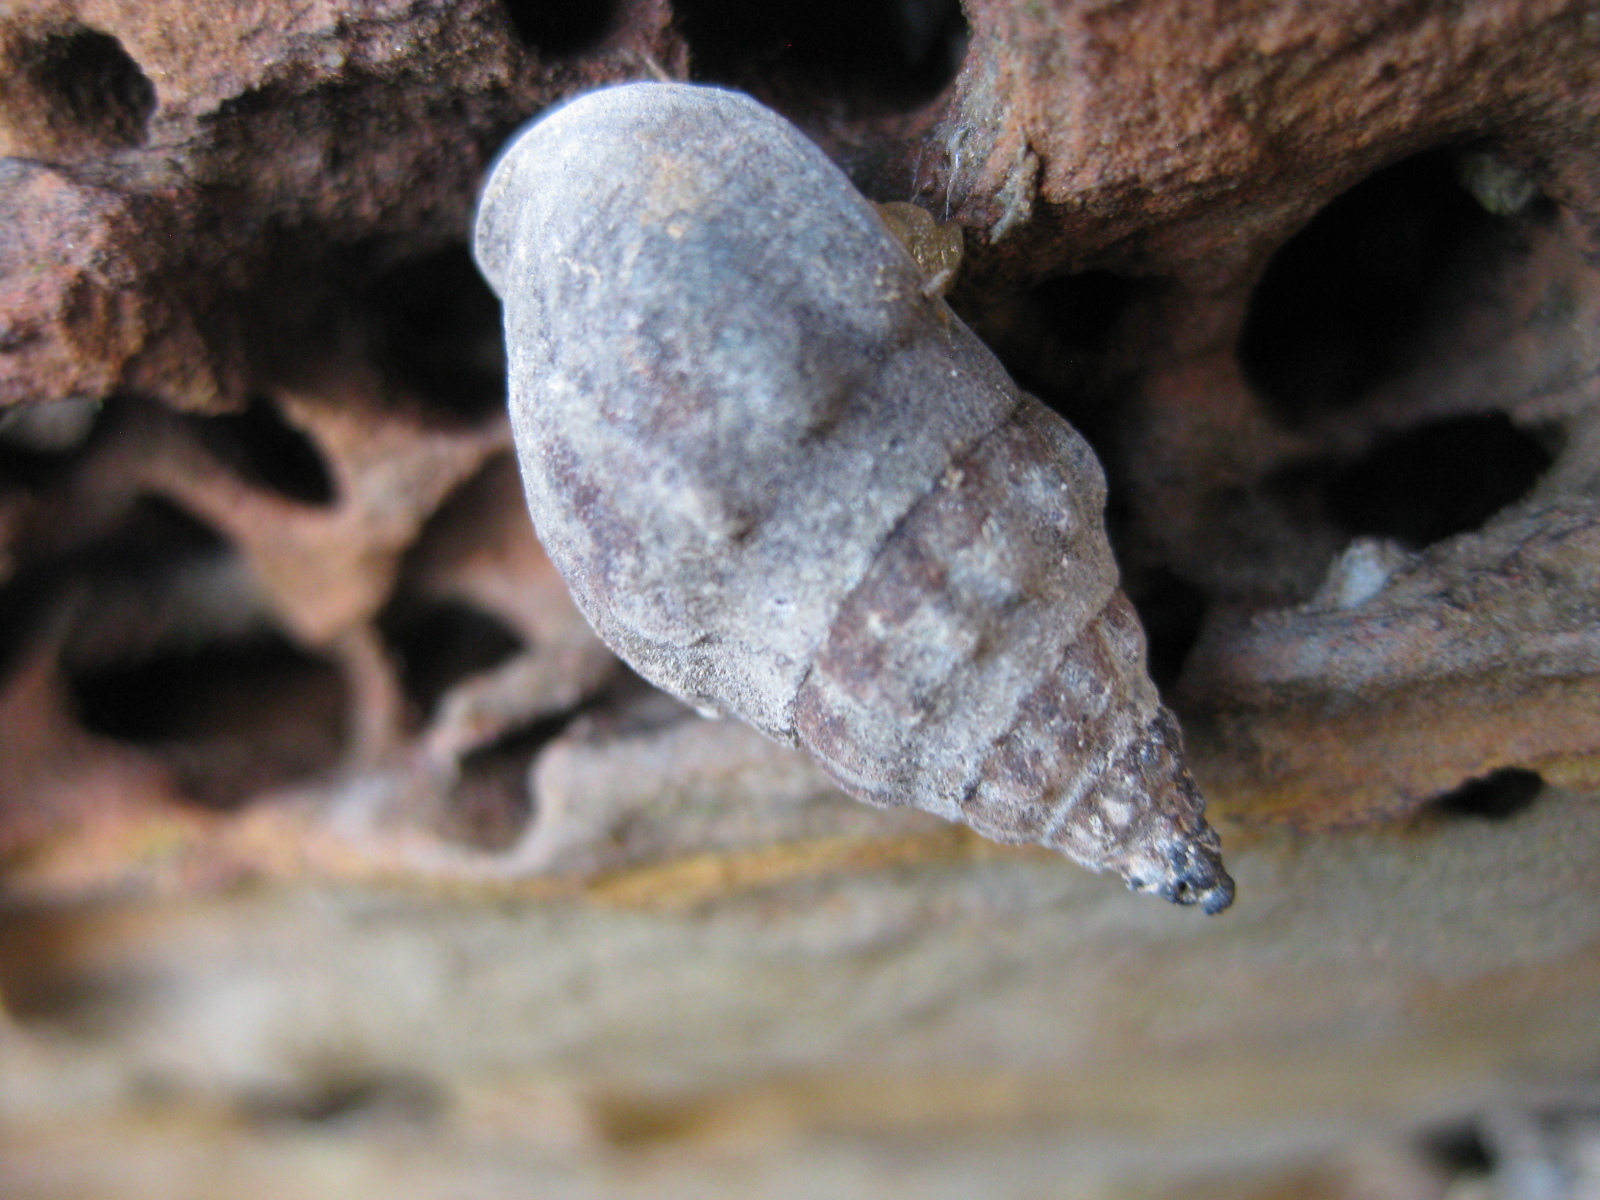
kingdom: Animalia
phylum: Mollusca
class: Gastropoda
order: Neogastropoda
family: Cominellidae
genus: Cominella
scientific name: Cominella glandiformis
